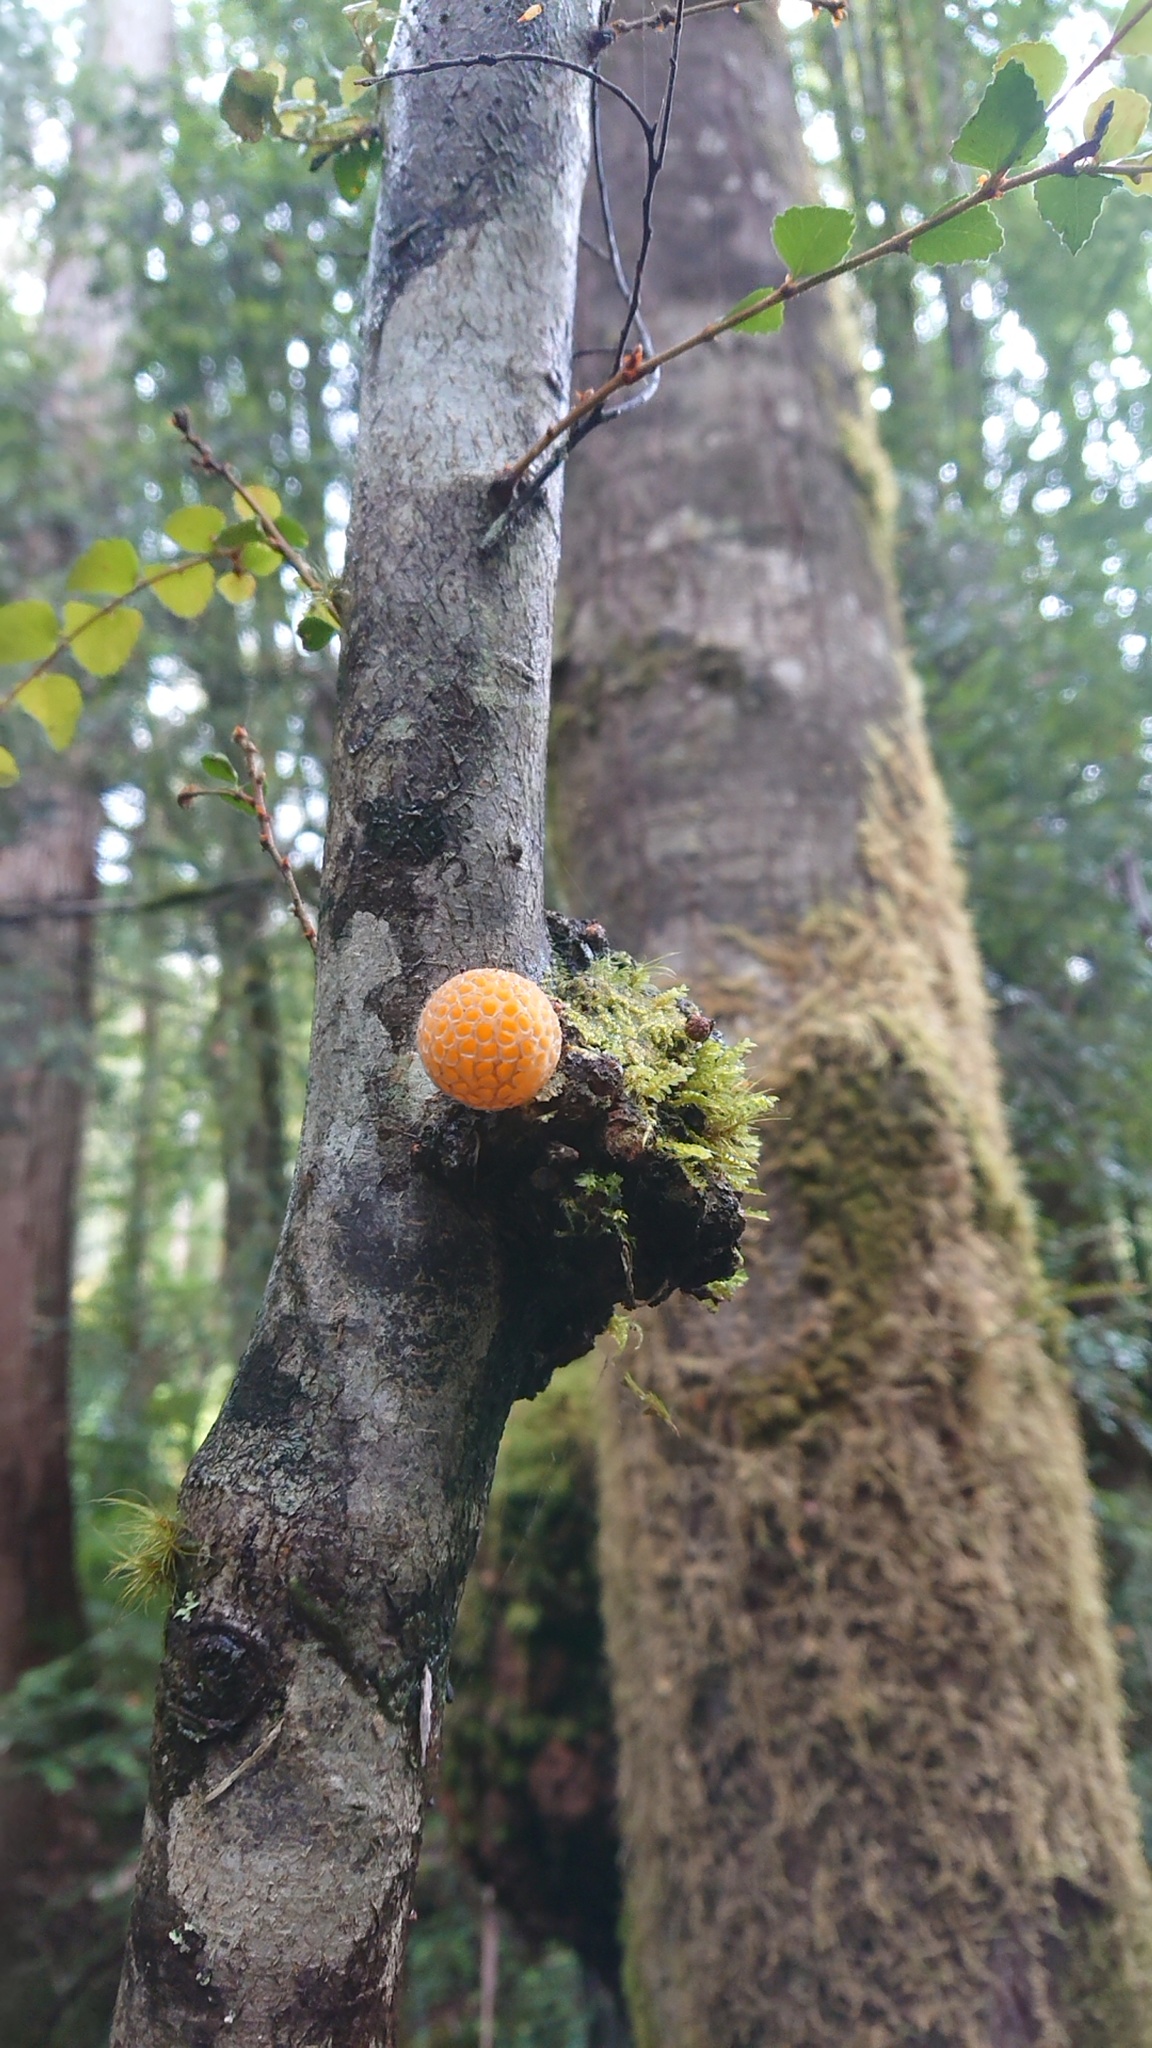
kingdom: Fungi
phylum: Ascomycota
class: Leotiomycetes
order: Cyttariales
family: Cyttariaceae
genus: Cyttaria
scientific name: Cyttaria gunnii
